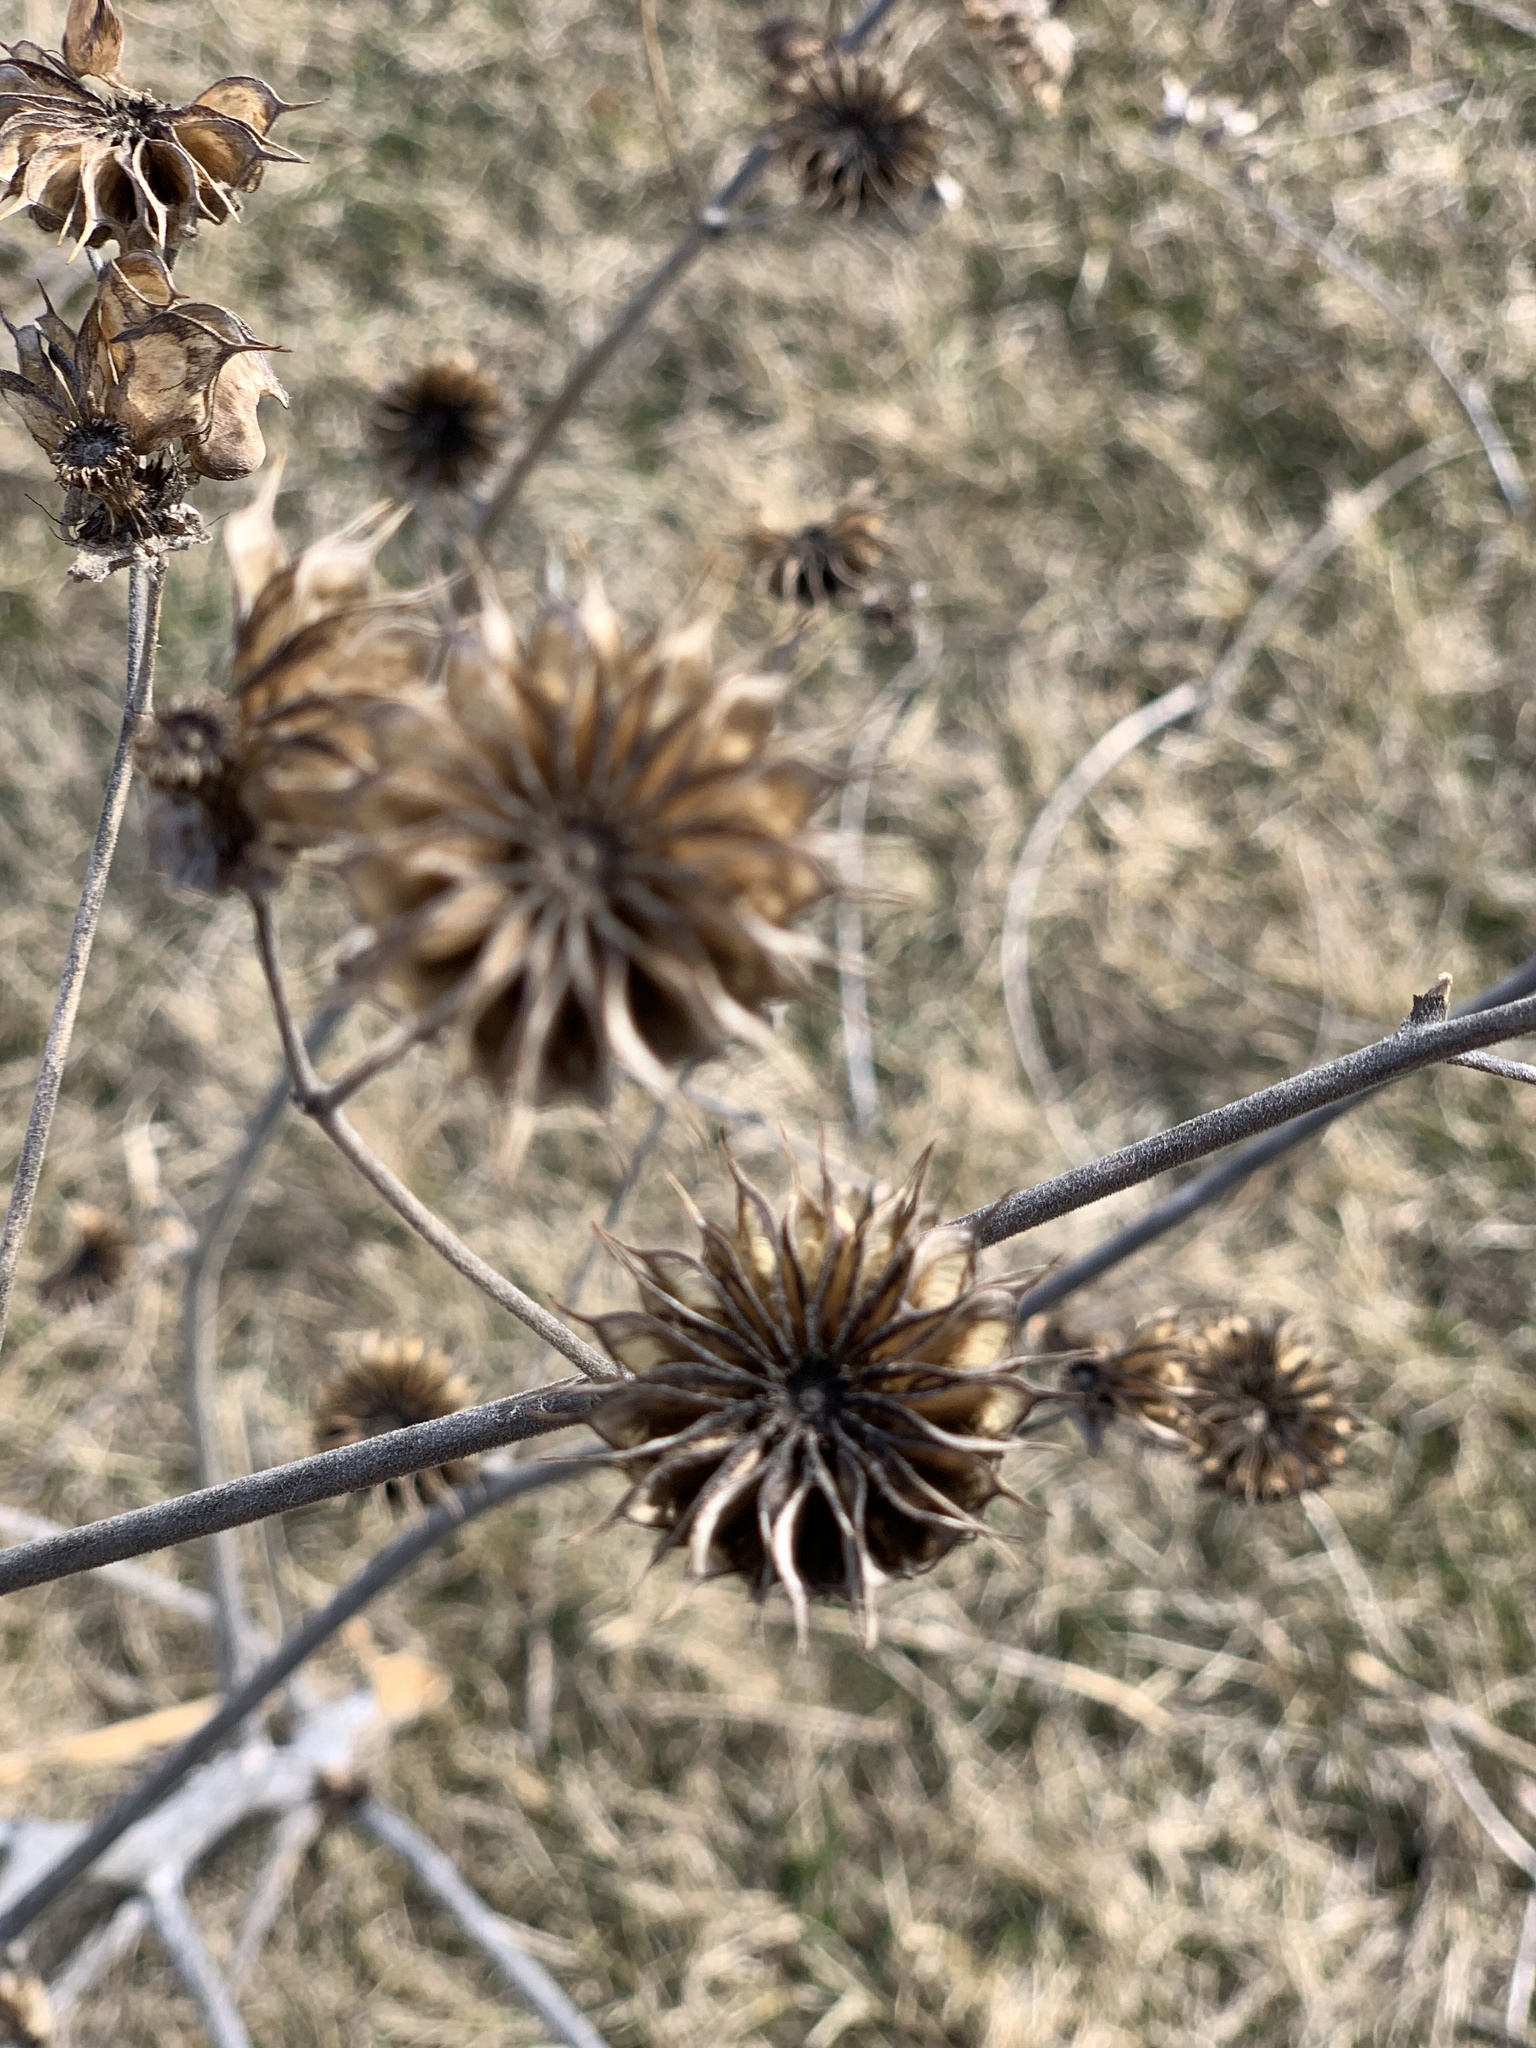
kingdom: Plantae
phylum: Tracheophyta
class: Magnoliopsida
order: Malvales
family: Malvaceae
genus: Abutilon
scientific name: Abutilon theophrasti
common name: Velvetleaf
